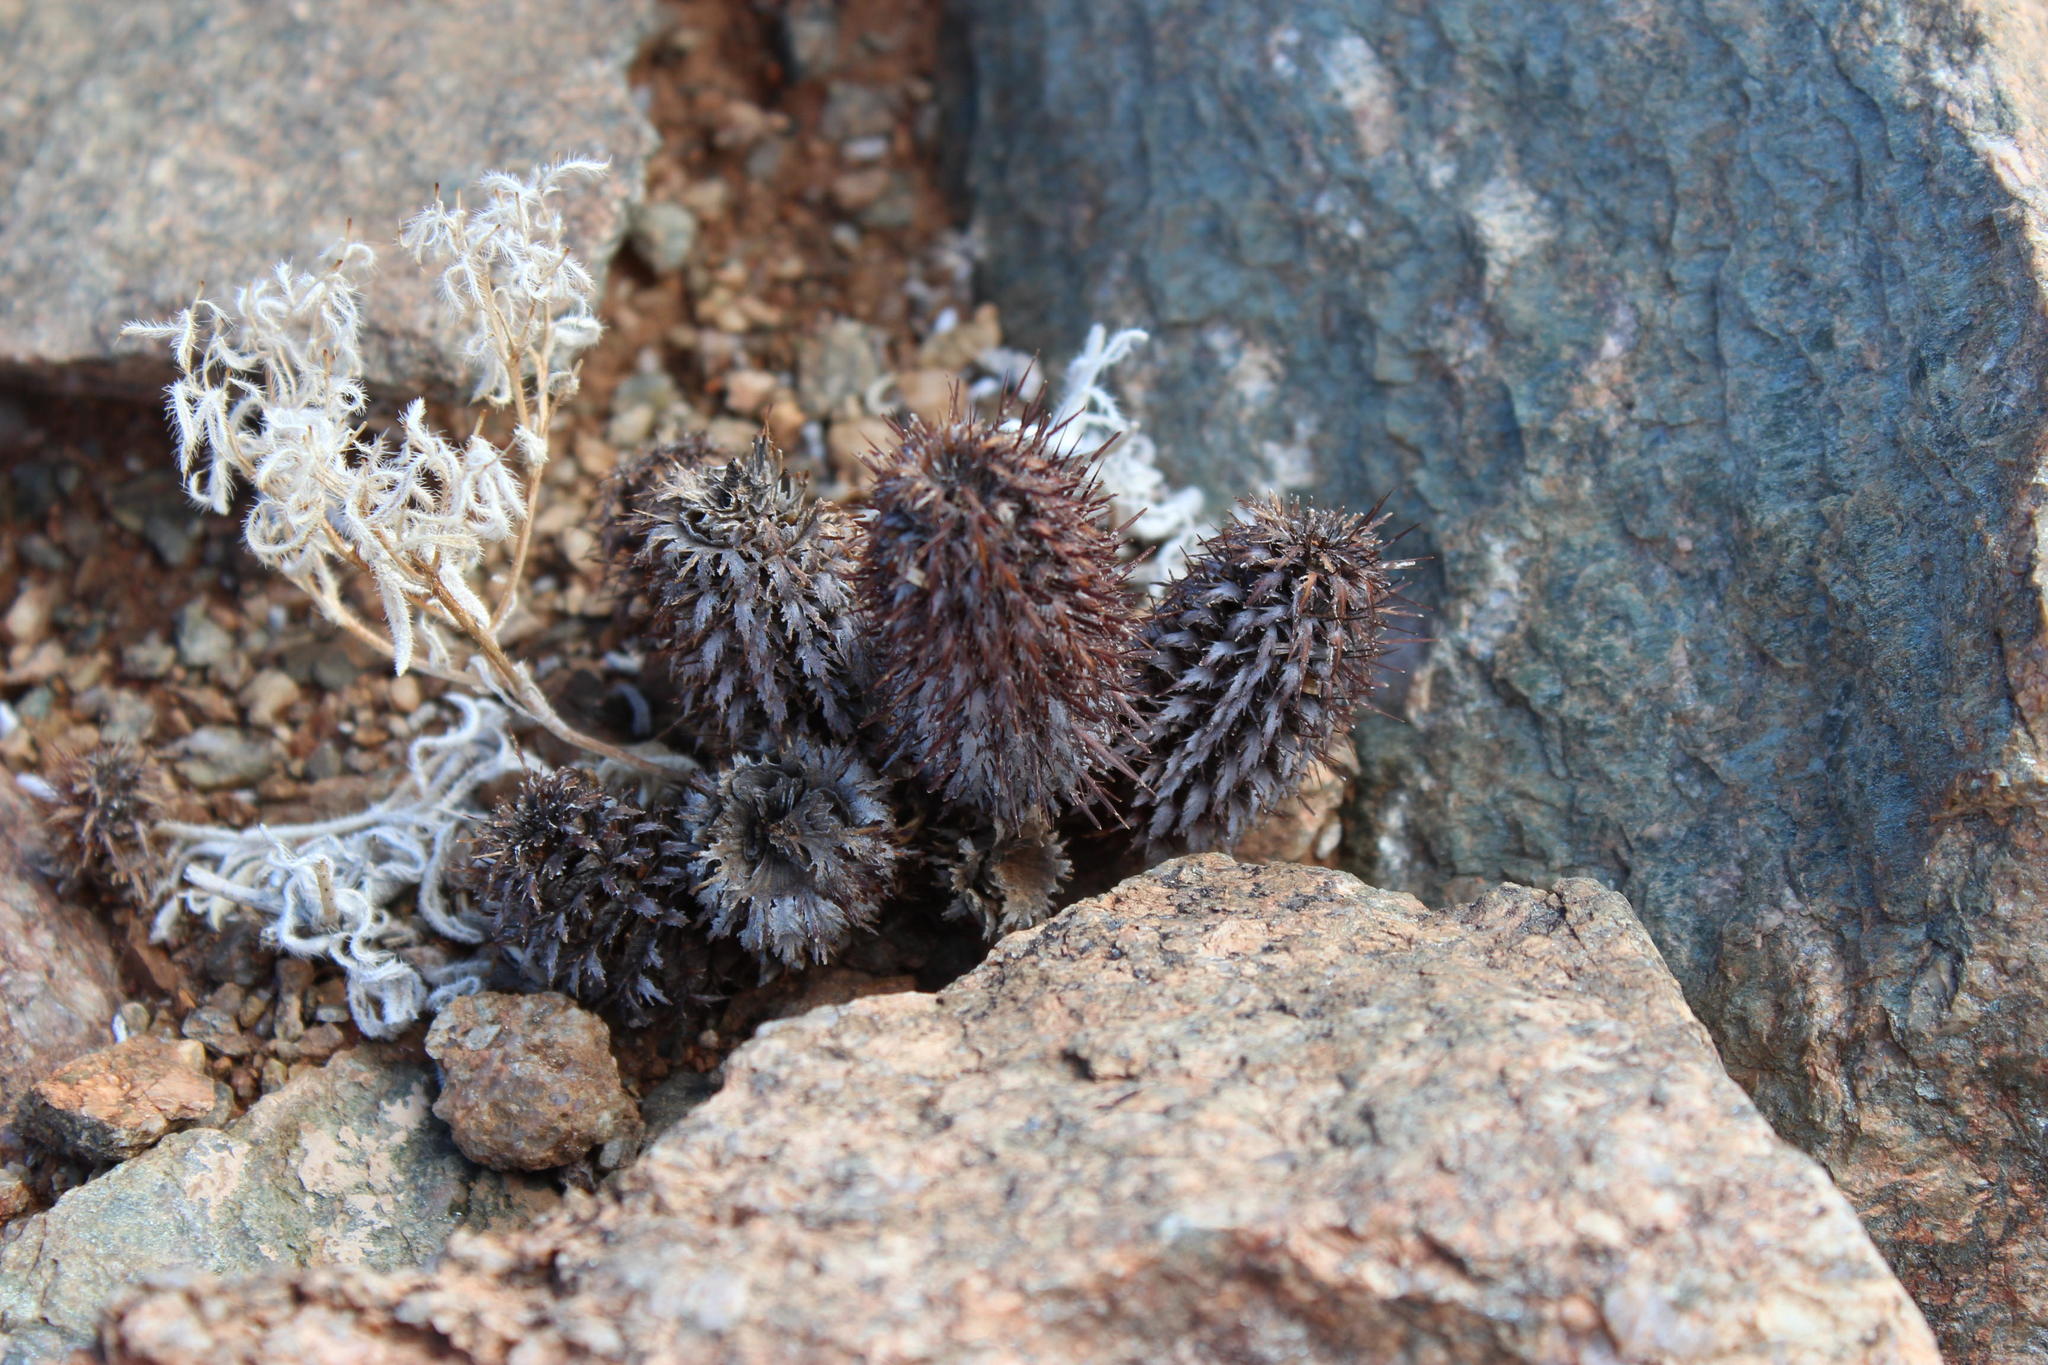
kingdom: Plantae
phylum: Tracheophyta
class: Magnoliopsida
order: Lamiales
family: Acanthaceae
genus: Acanthopsis
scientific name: Acanthopsis disperma
